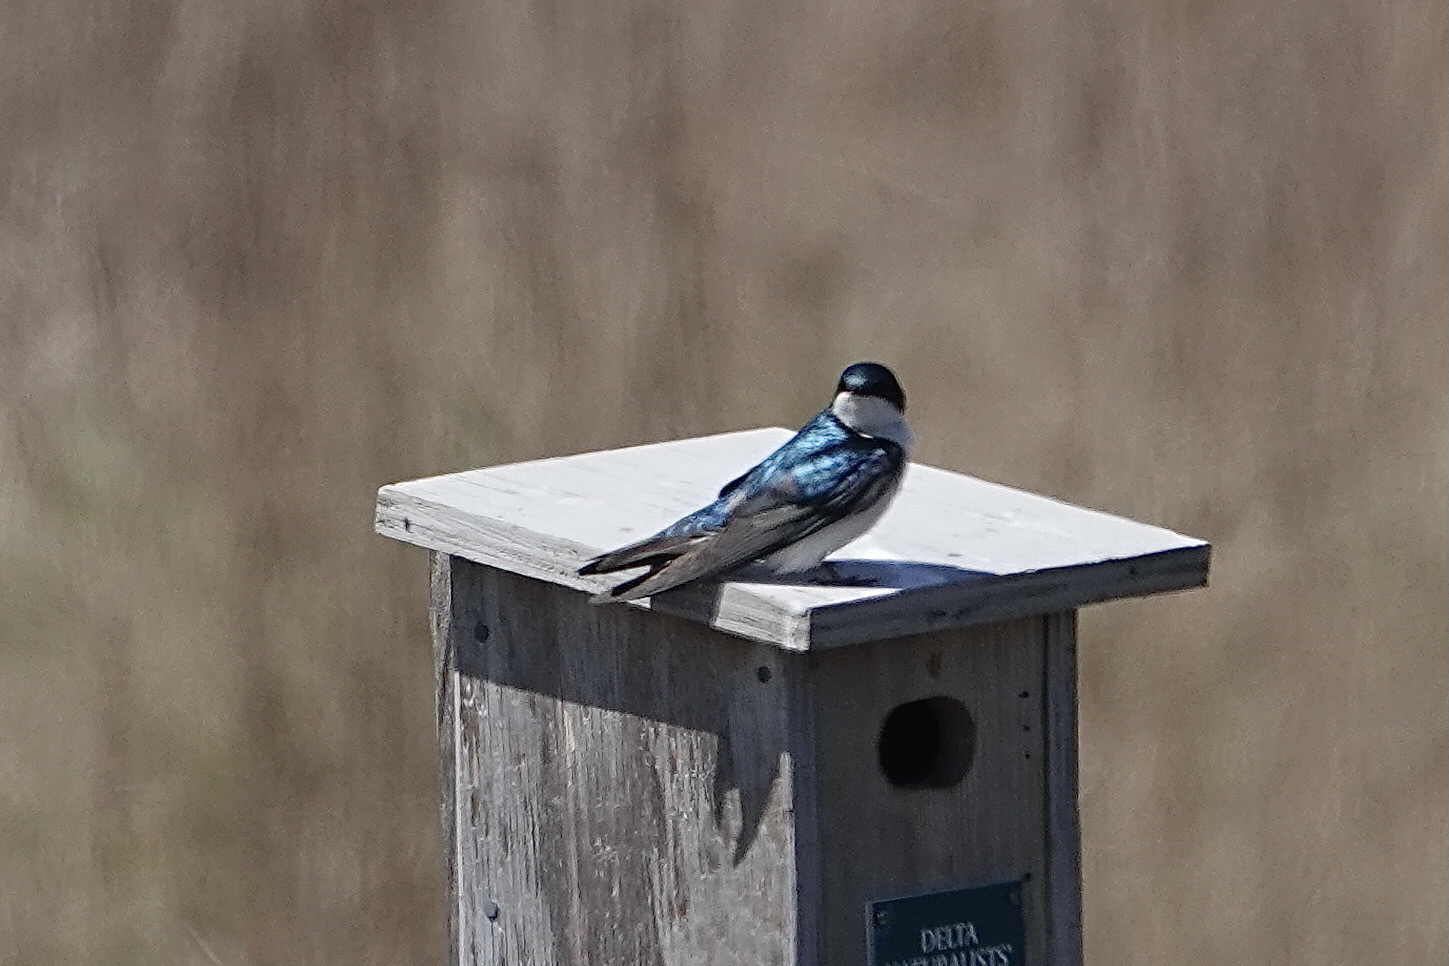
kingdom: Animalia
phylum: Chordata
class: Aves
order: Passeriformes
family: Hirundinidae
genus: Tachycineta
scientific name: Tachycineta bicolor
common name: Tree swallow
